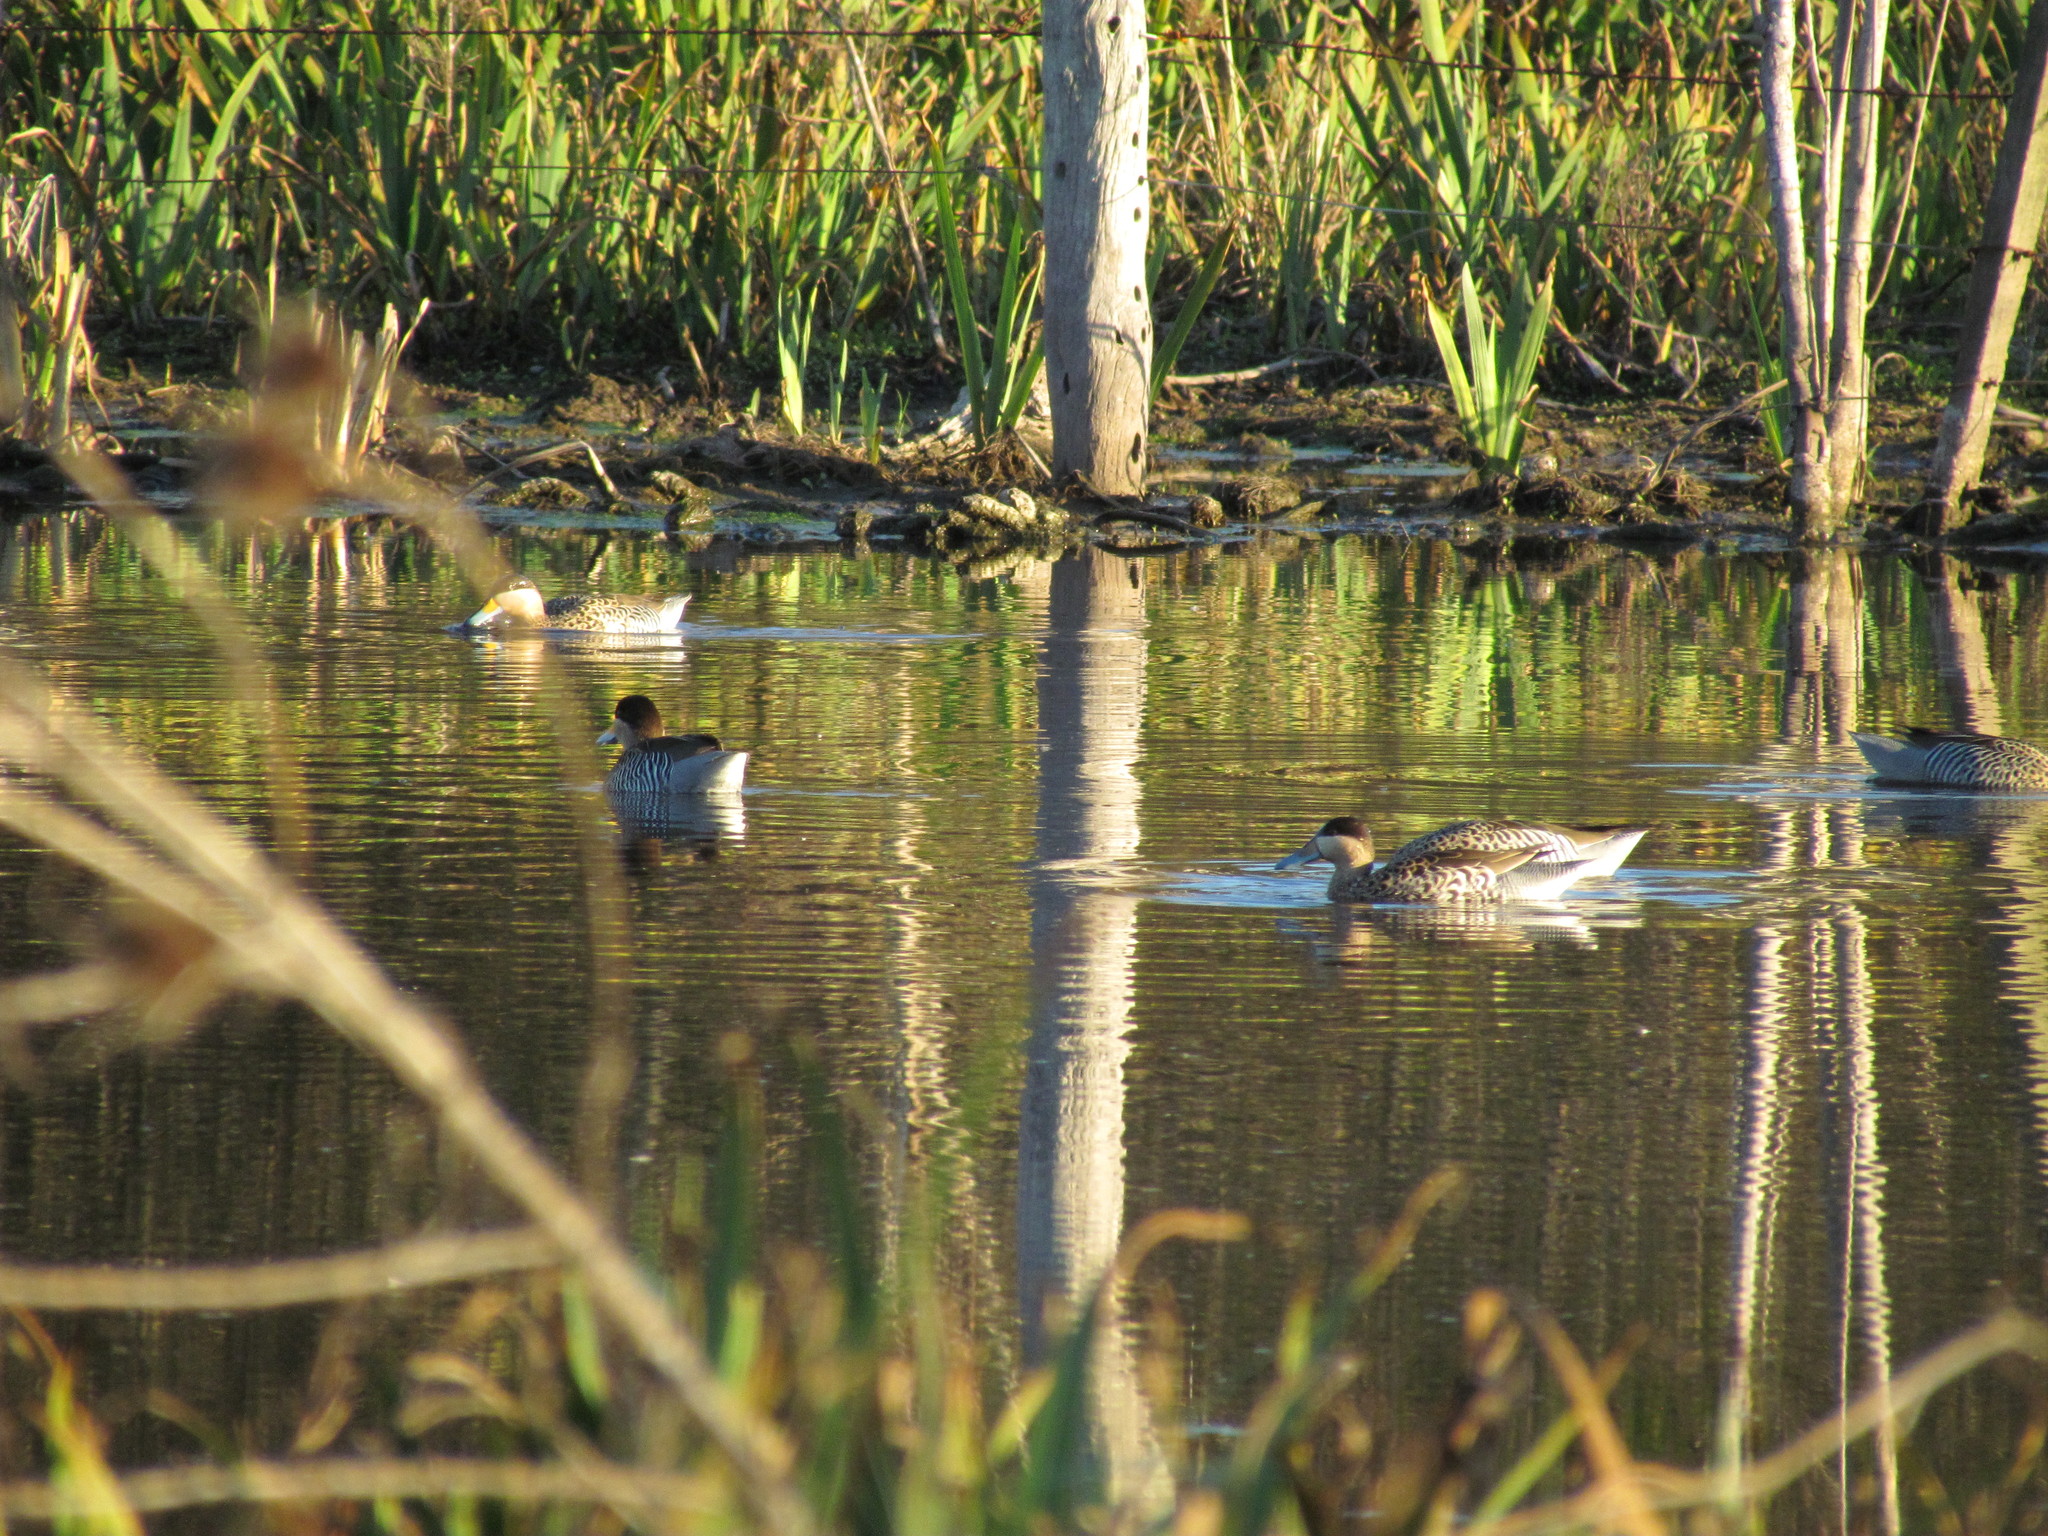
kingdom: Animalia
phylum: Chordata
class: Aves
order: Anseriformes
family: Anatidae
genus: Spatula
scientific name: Spatula versicolor
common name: Silver teal
